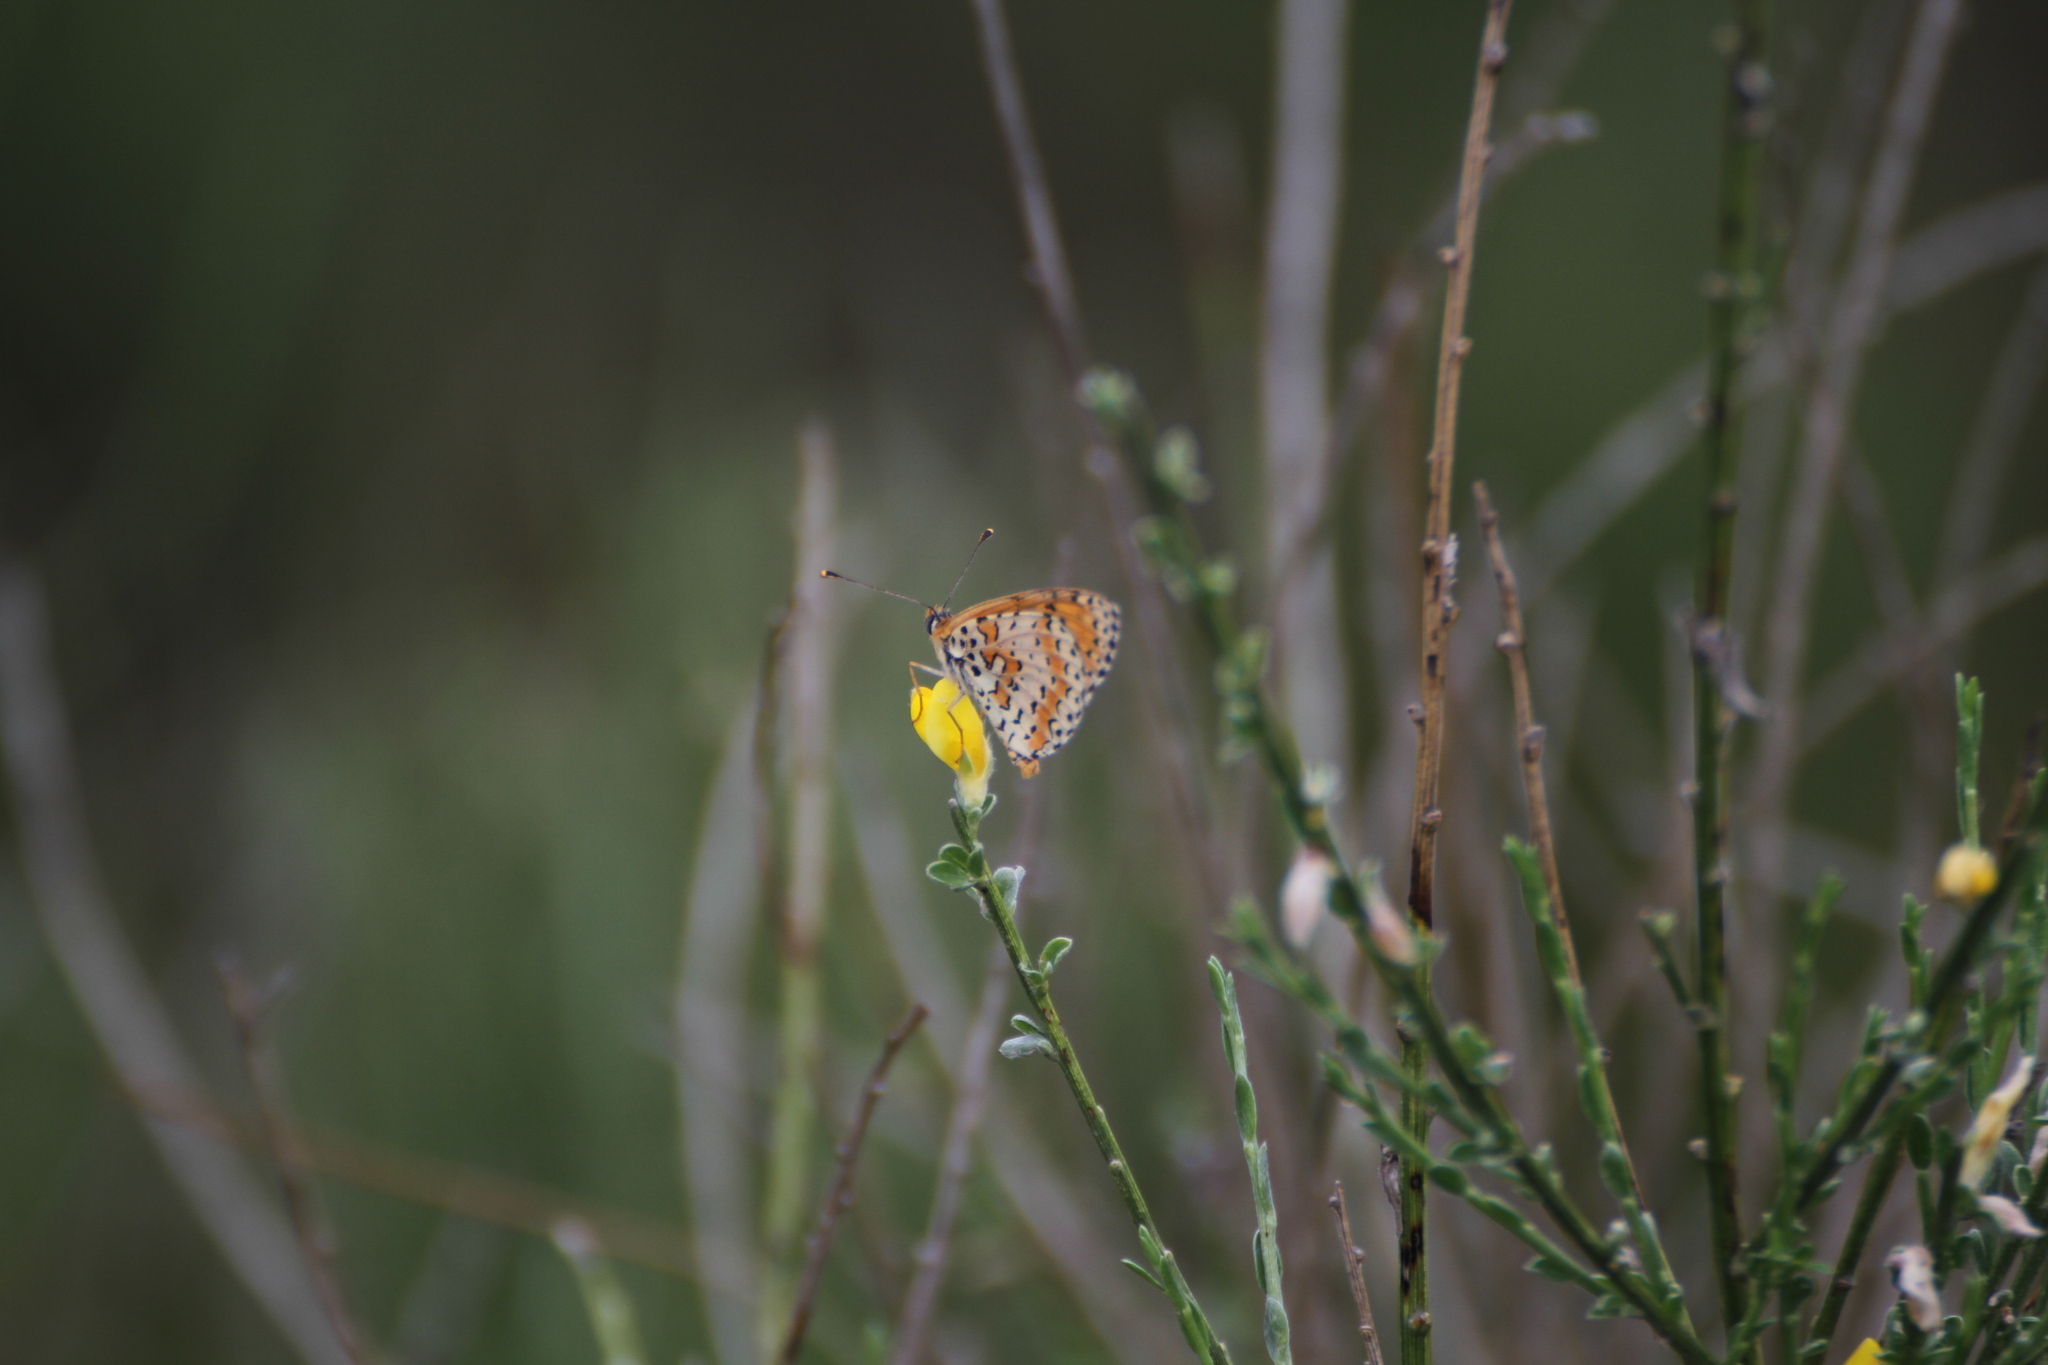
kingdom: Animalia
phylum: Arthropoda
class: Insecta
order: Lepidoptera
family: Nymphalidae
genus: Melitaea
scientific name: Melitaea didyma
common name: Spotted fritillary
